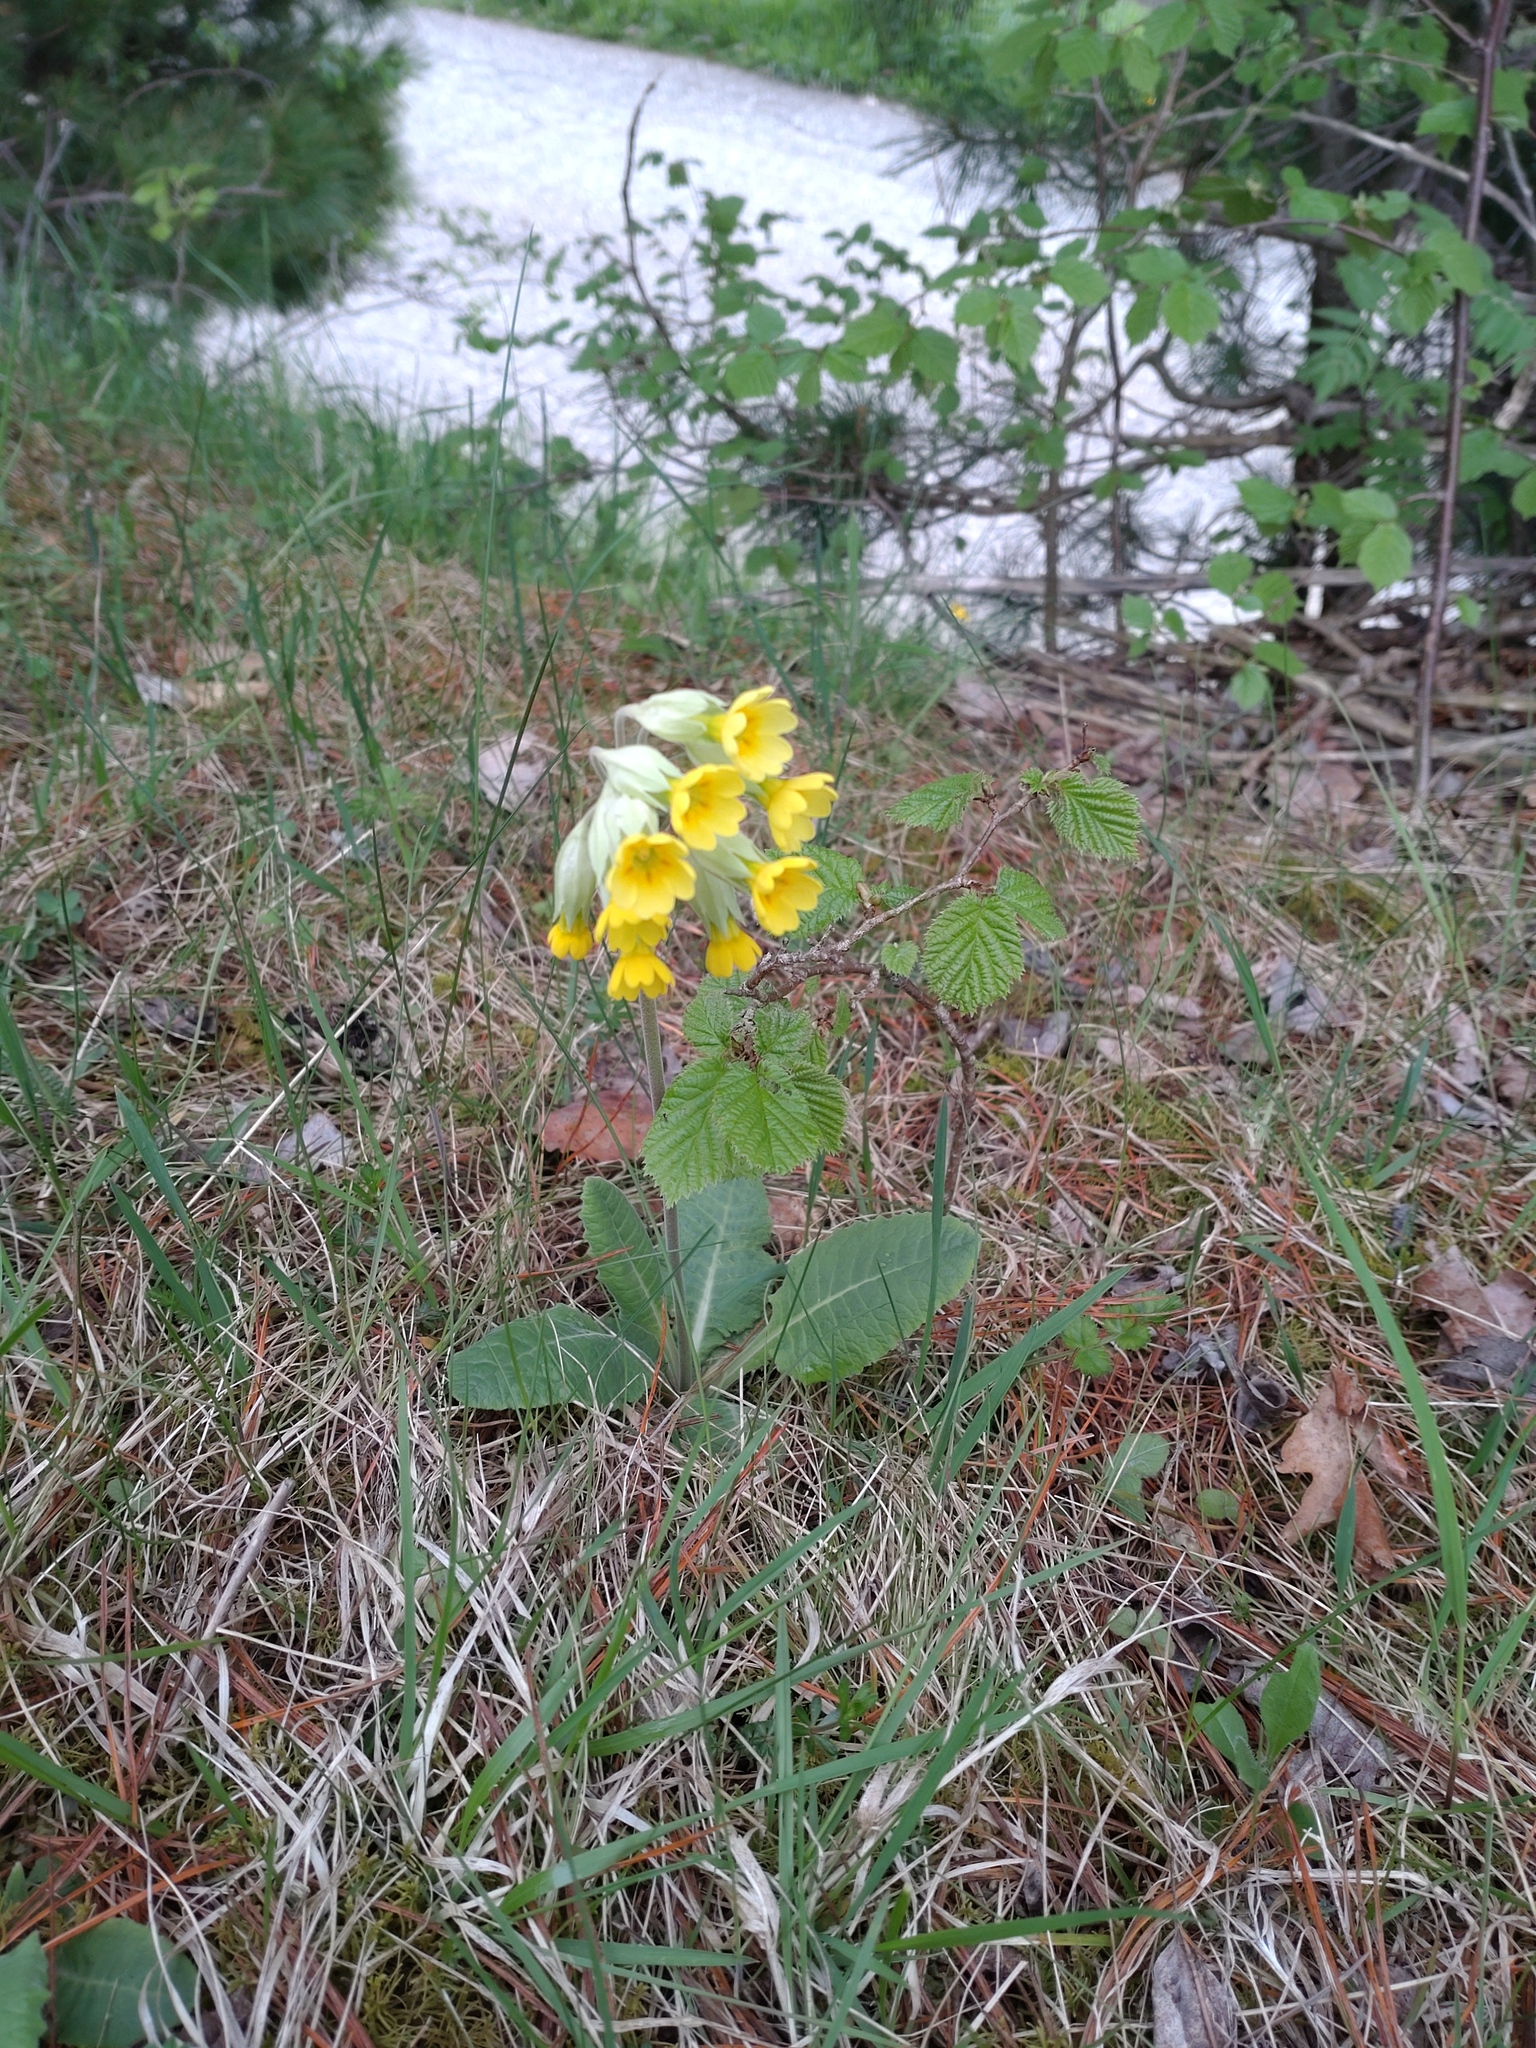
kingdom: Plantae
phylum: Tracheophyta
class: Magnoliopsida
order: Ericales
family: Primulaceae
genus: Primula
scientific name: Primula veris
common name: Cowslip
